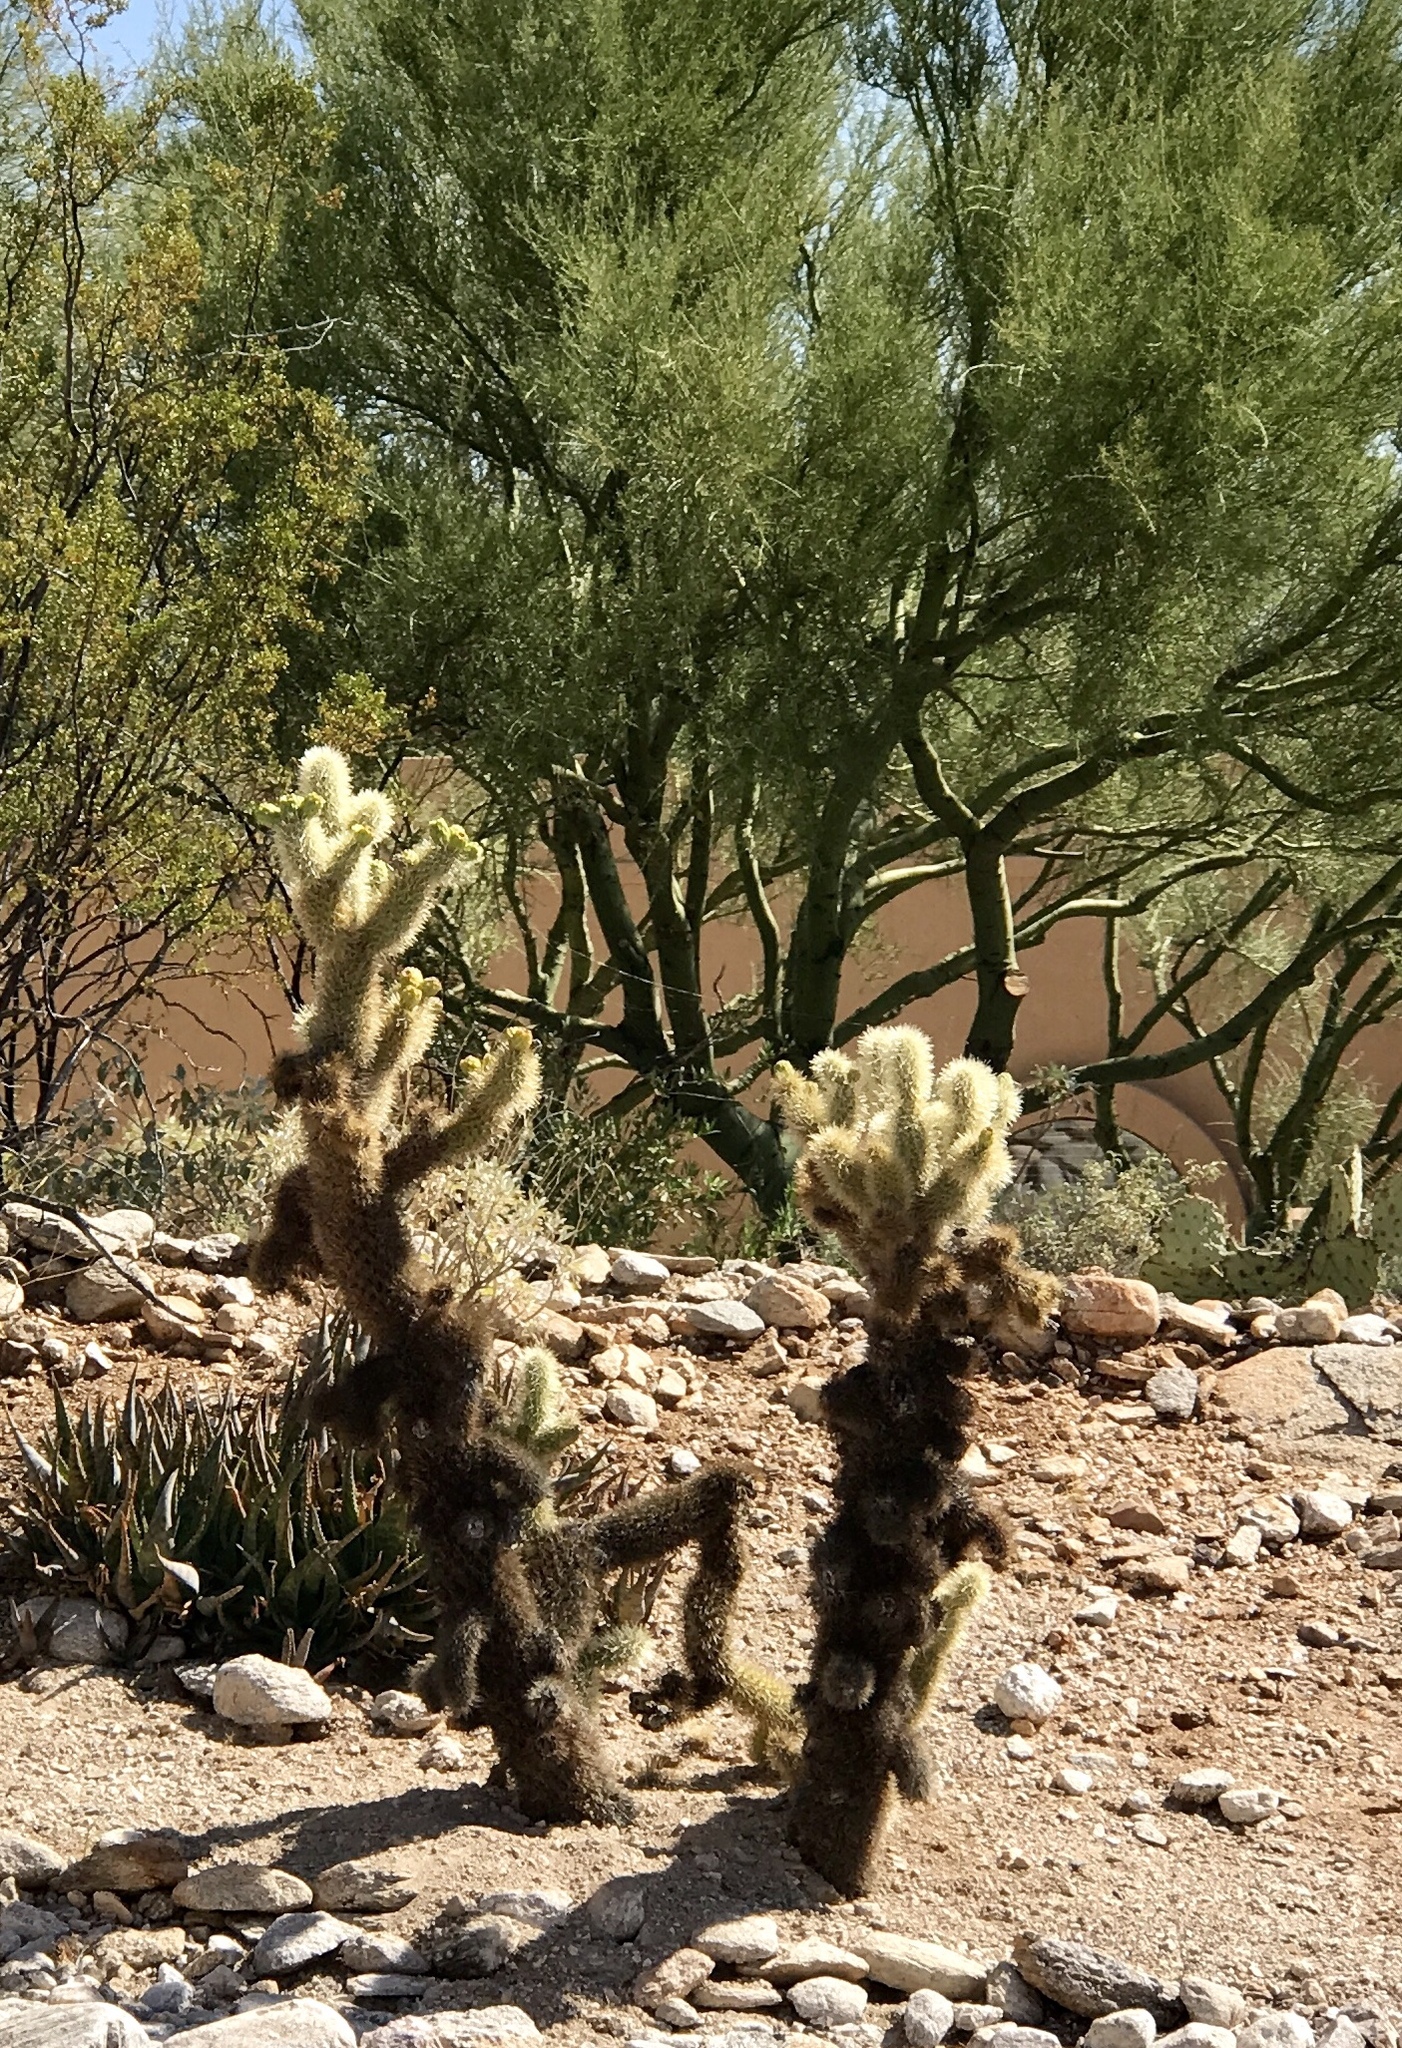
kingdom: Plantae
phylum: Tracheophyta
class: Magnoliopsida
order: Caryophyllales
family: Cactaceae
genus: Cylindropuntia
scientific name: Cylindropuntia fosbergii
